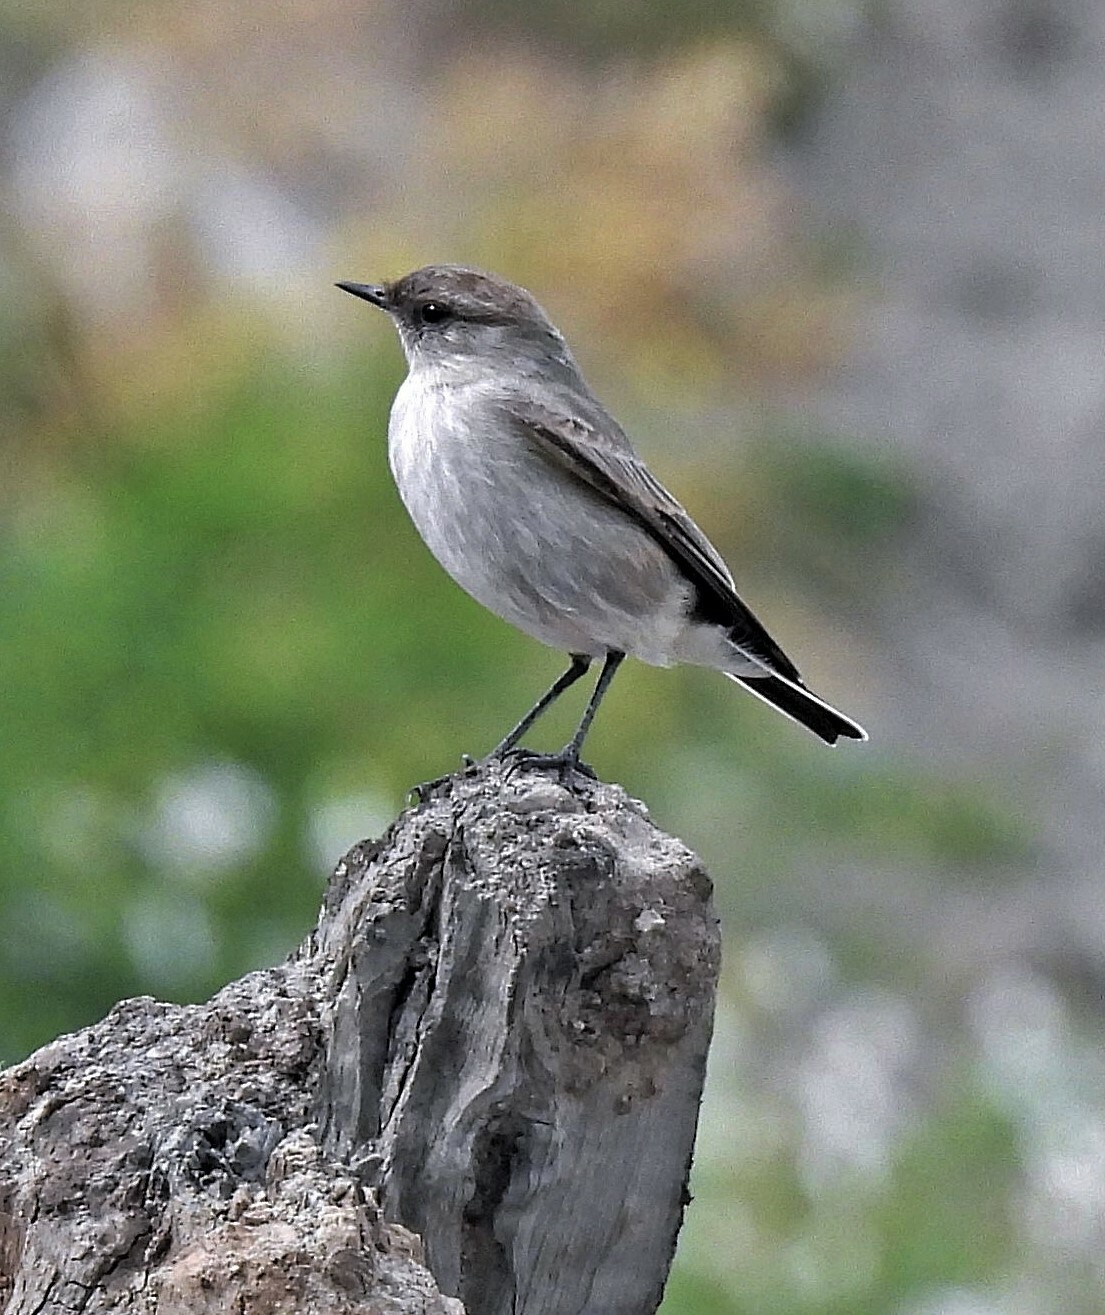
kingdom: Animalia
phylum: Chordata
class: Aves
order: Passeriformes
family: Tyrannidae
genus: Muscisaxicola
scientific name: Muscisaxicola maclovianus
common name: Dark-faced ground tyrant
